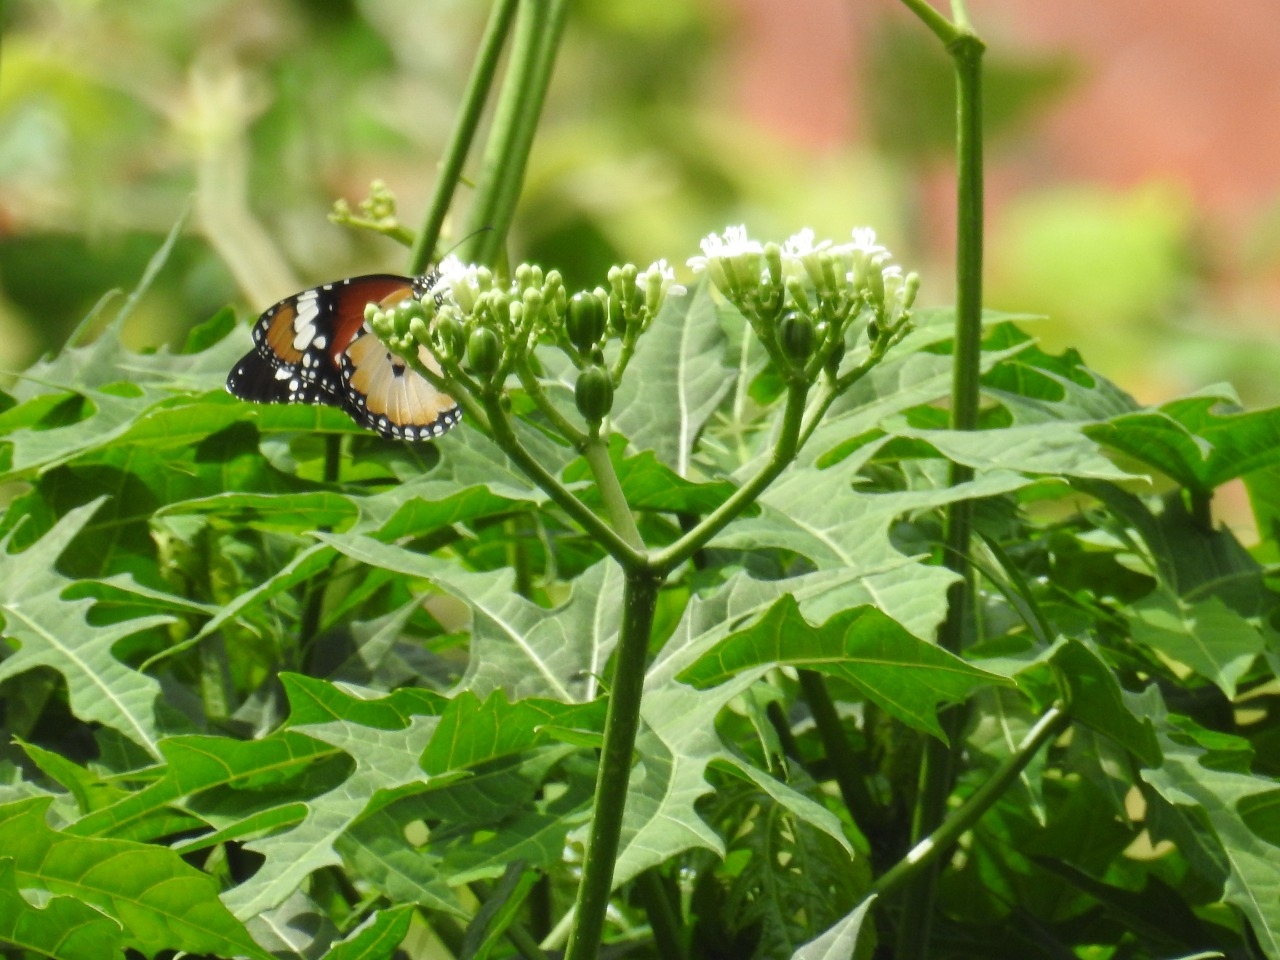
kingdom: Animalia
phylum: Arthropoda
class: Insecta
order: Lepidoptera
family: Nymphalidae
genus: Danaus
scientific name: Danaus chrysippus
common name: Plain tiger
